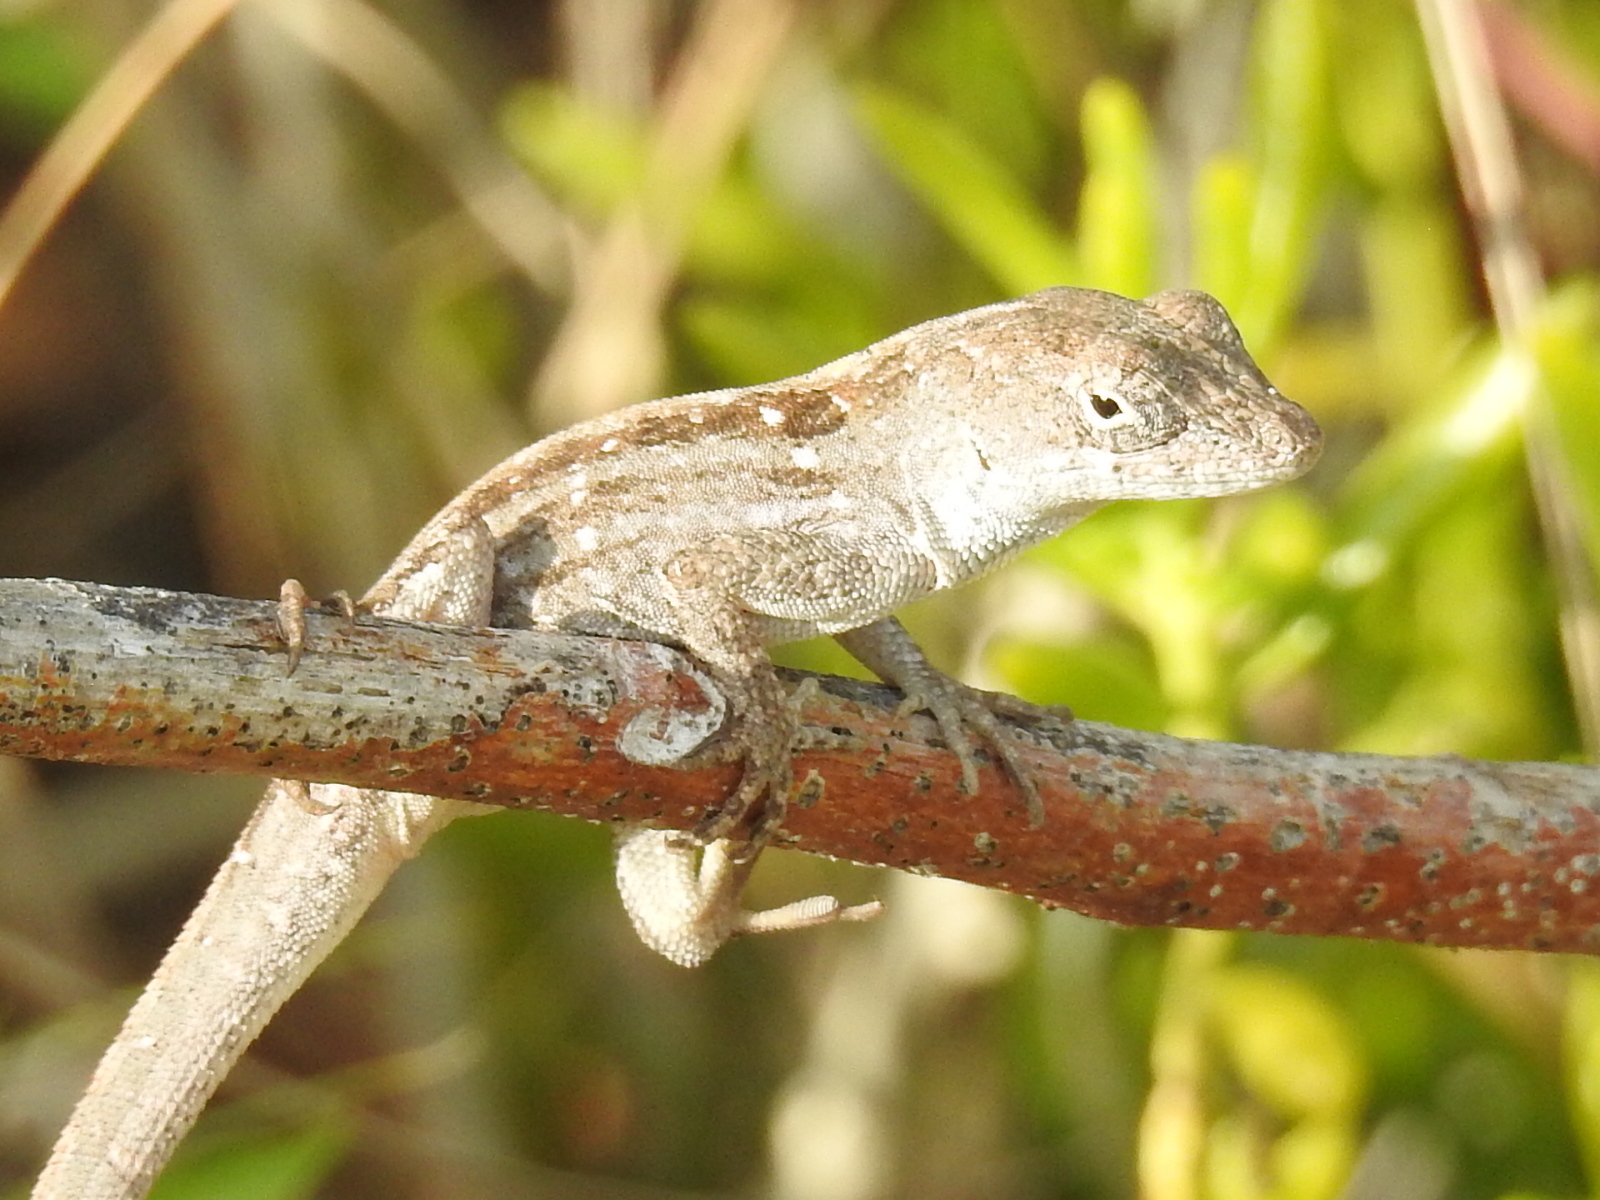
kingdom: Animalia
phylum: Chordata
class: Squamata
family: Dactyloidae
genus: Anolis
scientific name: Anolis sagrei
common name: Brown anole
